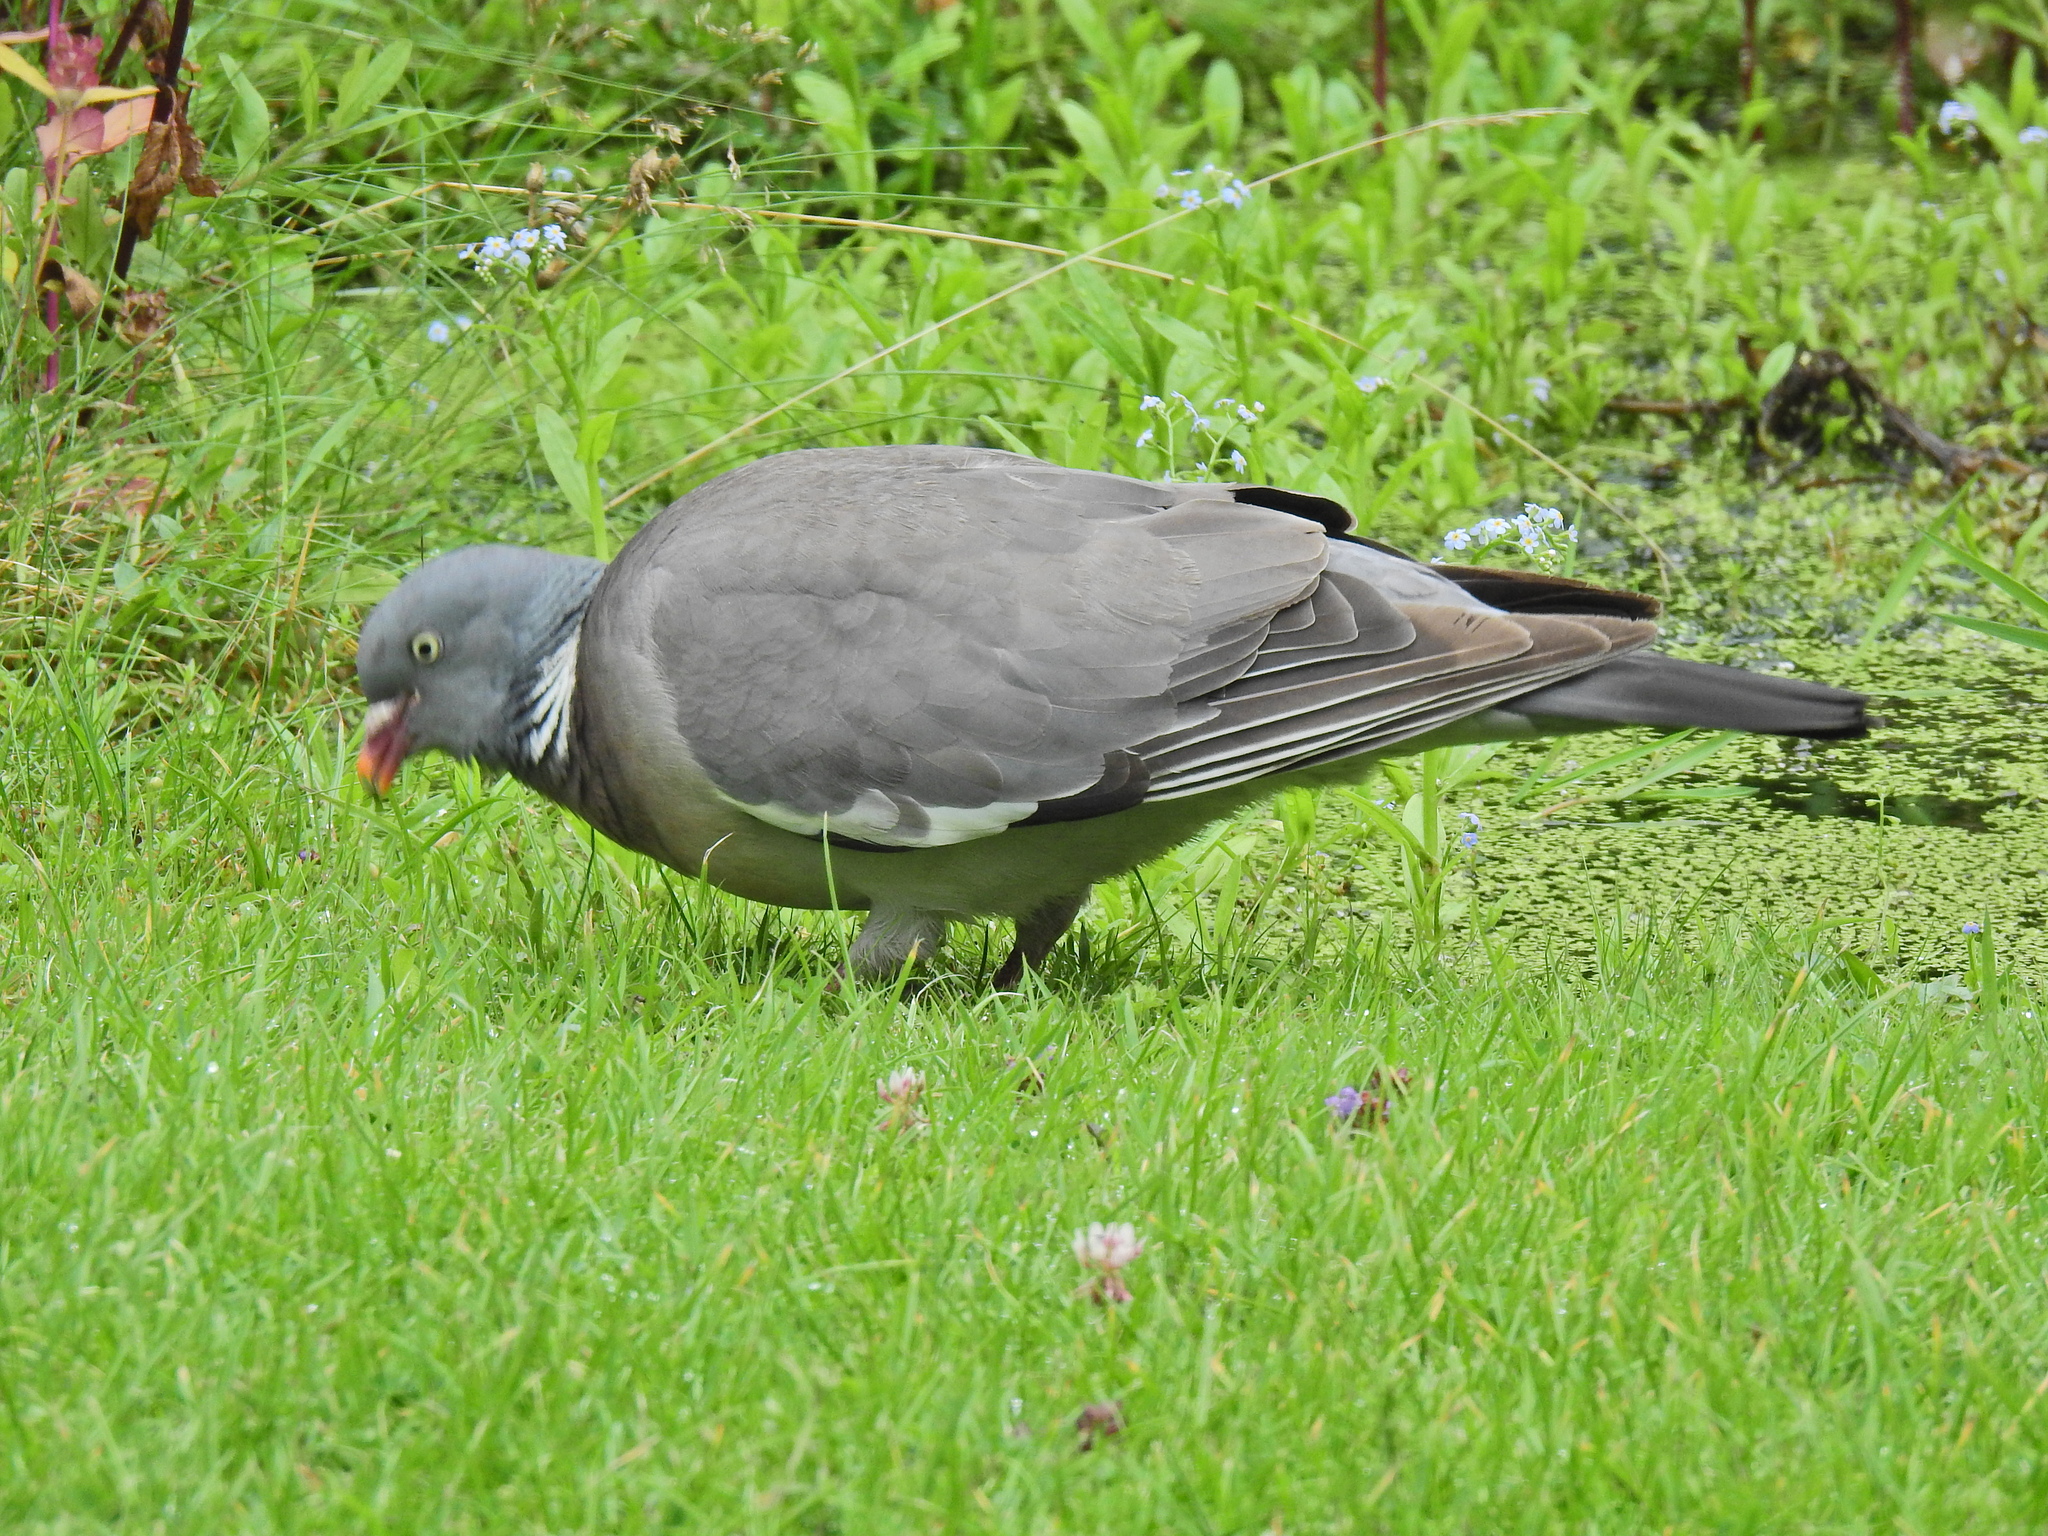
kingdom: Animalia
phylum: Chordata
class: Aves
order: Columbiformes
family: Columbidae
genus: Columba
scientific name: Columba palumbus
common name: Common wood pigeon
